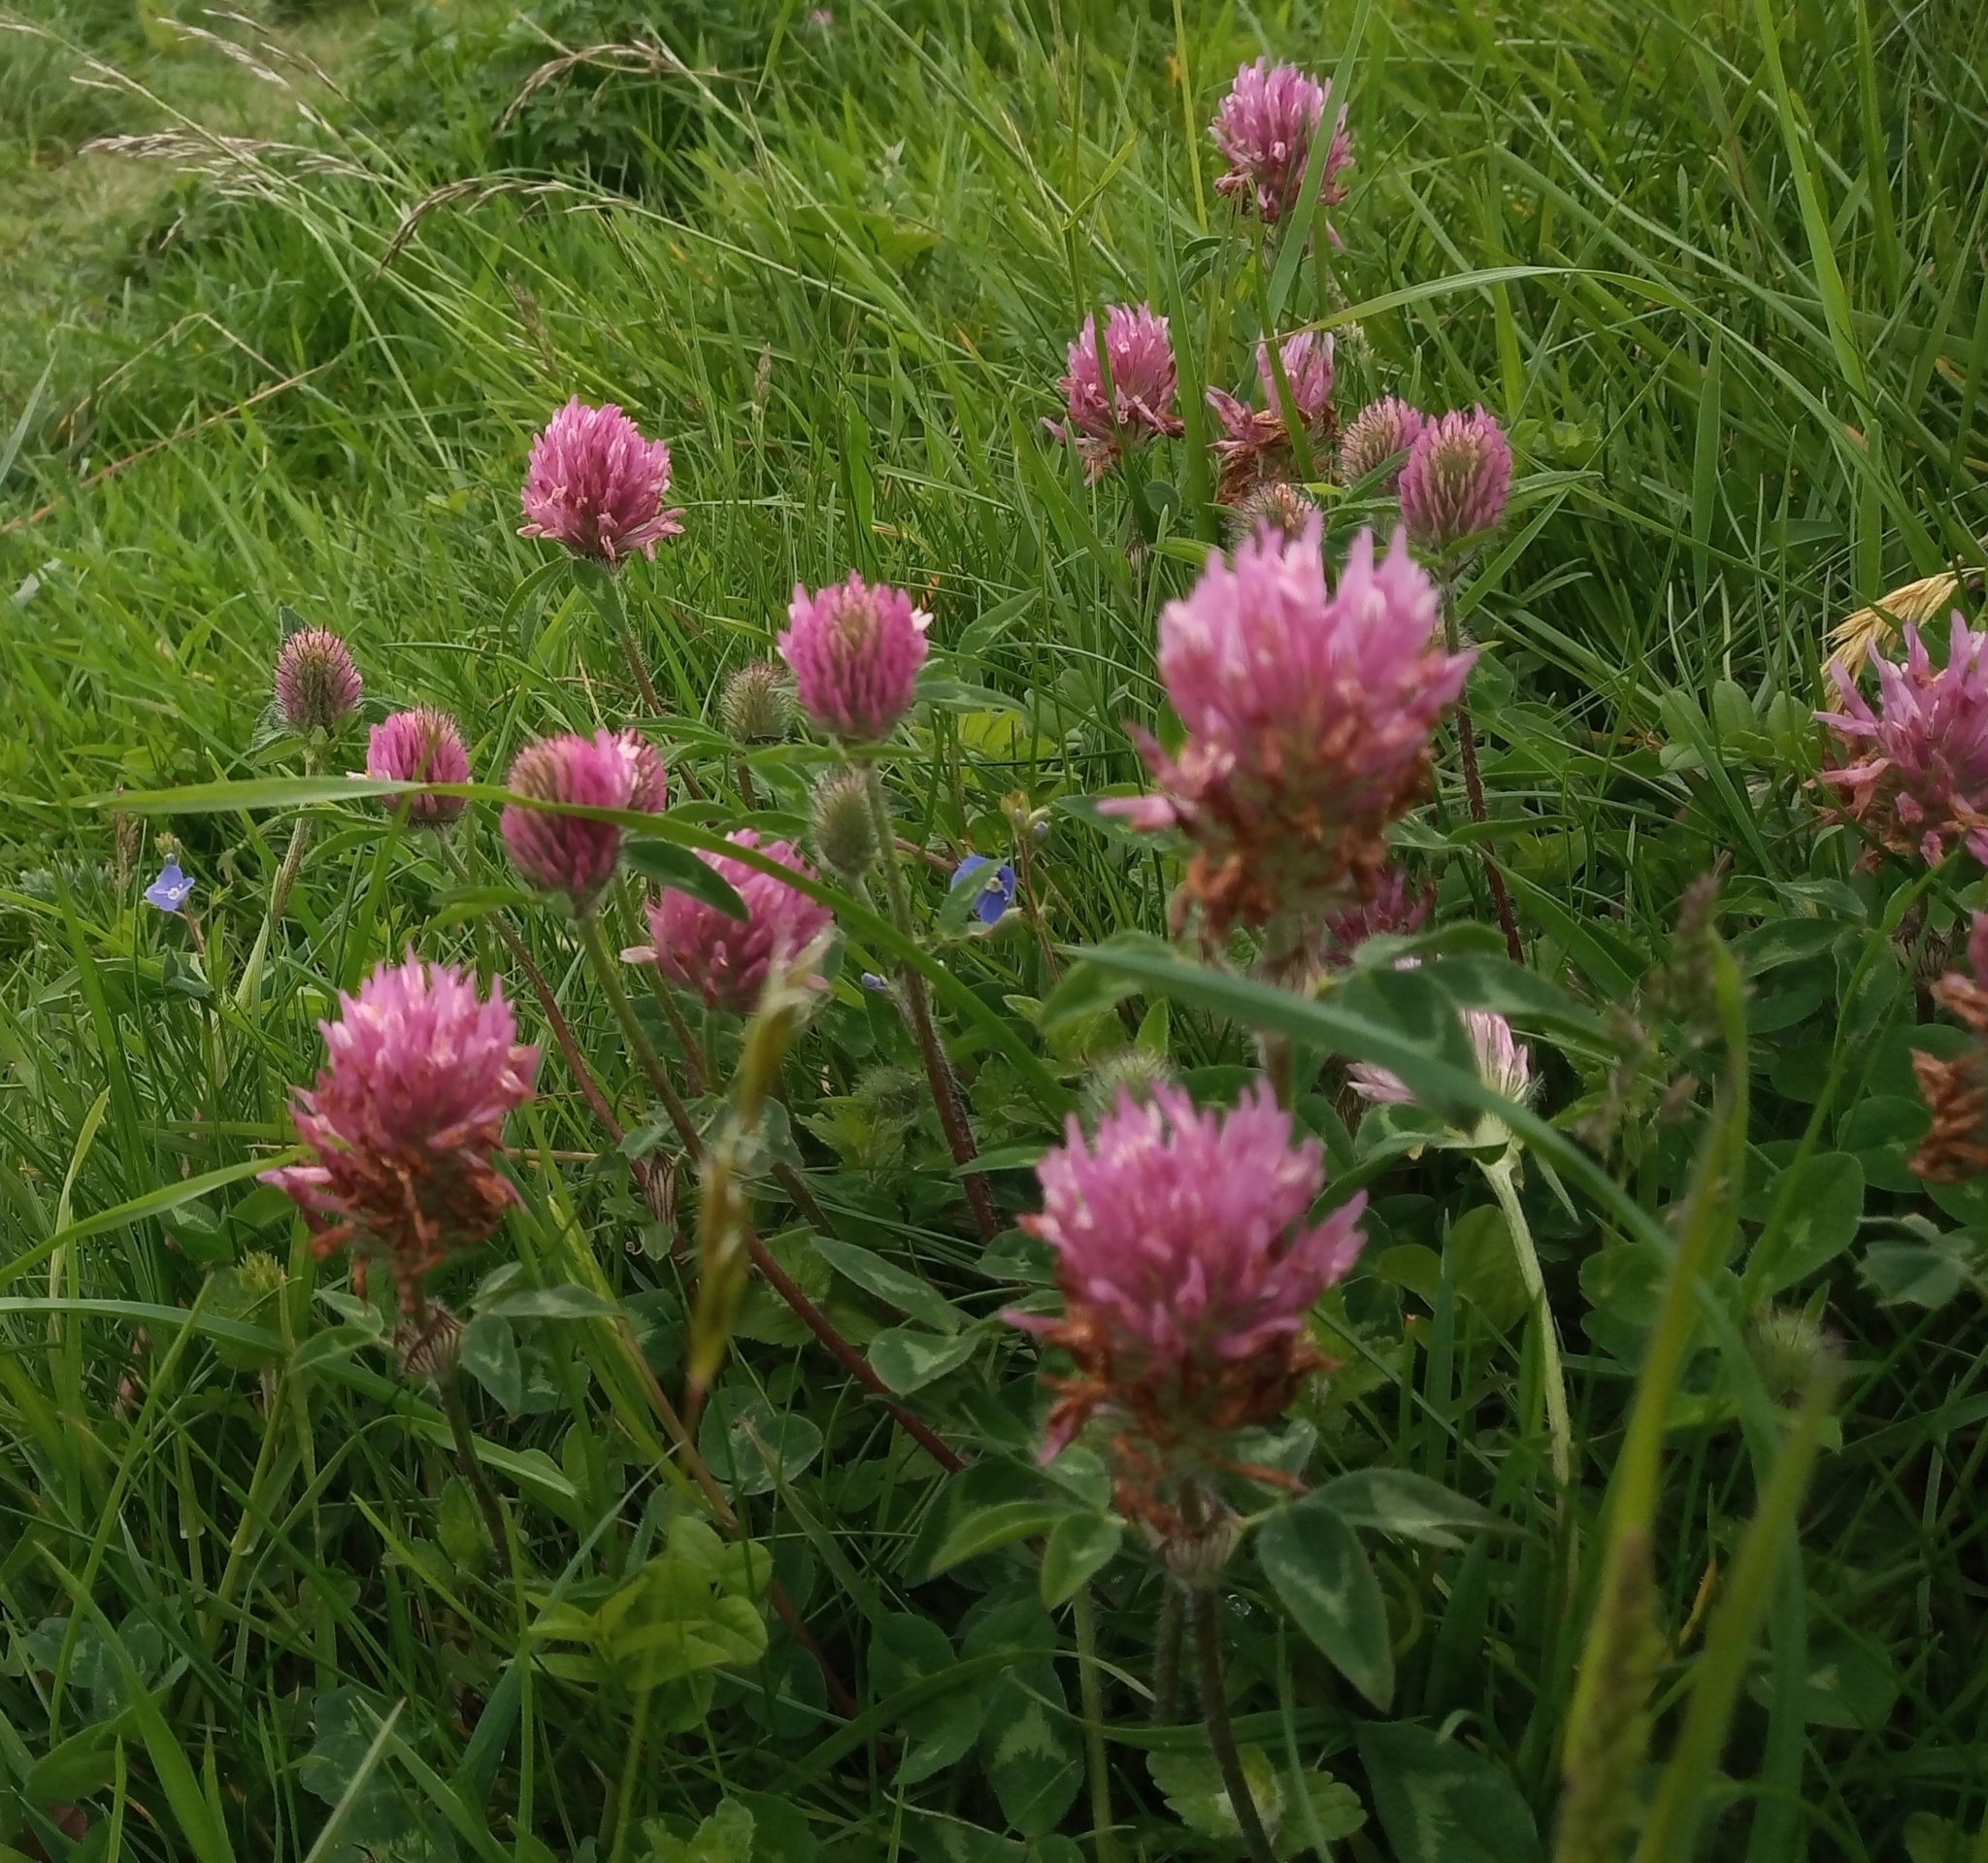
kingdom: Plantae
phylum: Tracheophyta
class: Magnoliopsida
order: Fabales
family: Fabaceae
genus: Trifolium
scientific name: Trifolium pratense
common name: Red clover
